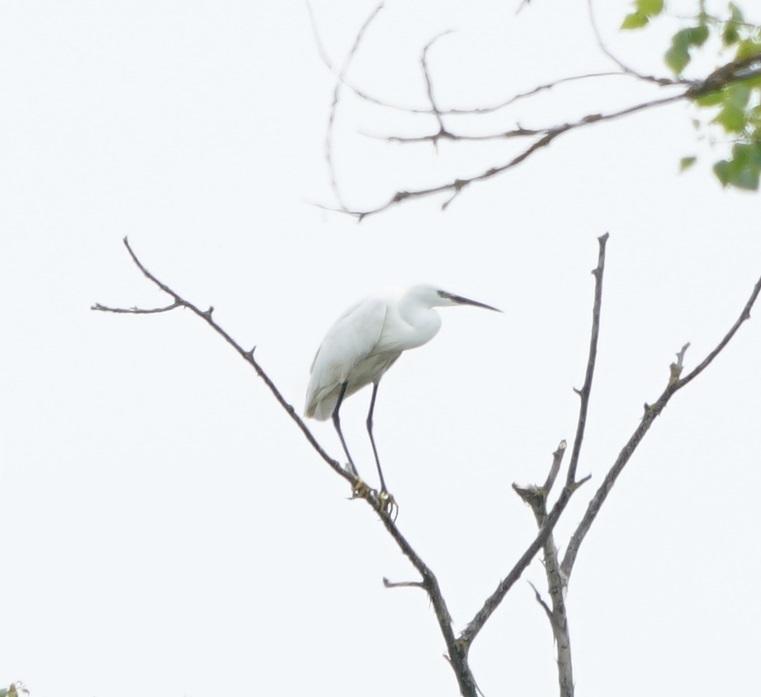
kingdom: Animalia
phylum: Chordata
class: Aves
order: Pelecaniformes
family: Ardeidae
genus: Egretta
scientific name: Egretta garzetta
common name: Little egret
